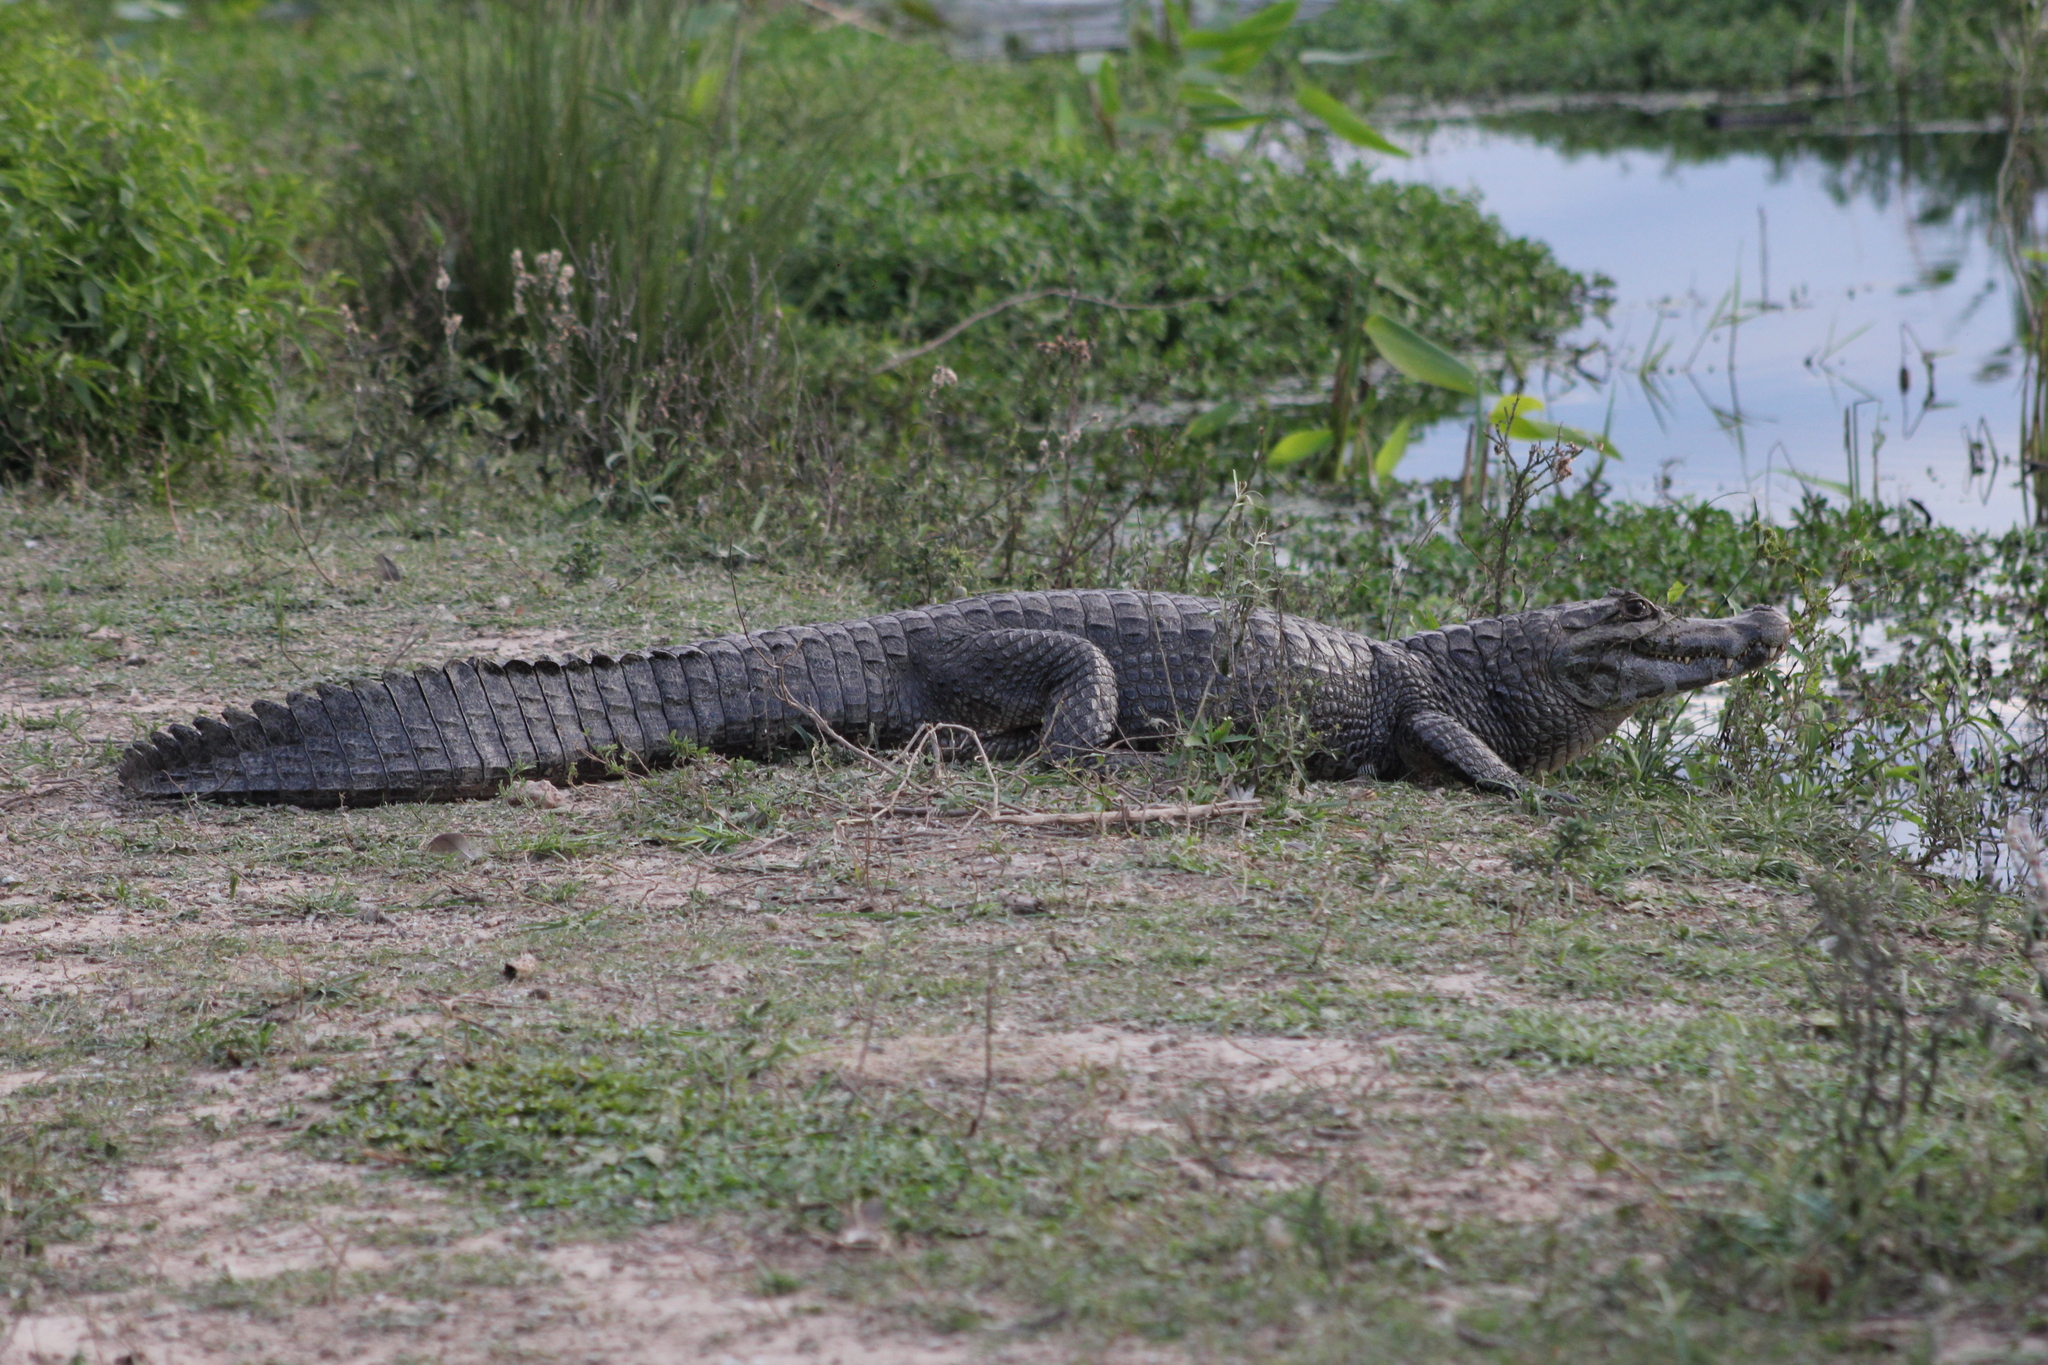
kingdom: Animalia
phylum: Chordata
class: Crocodylia
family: Alligatoridae
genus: Caiman
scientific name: Caiman yacare
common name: Yacare caiman
